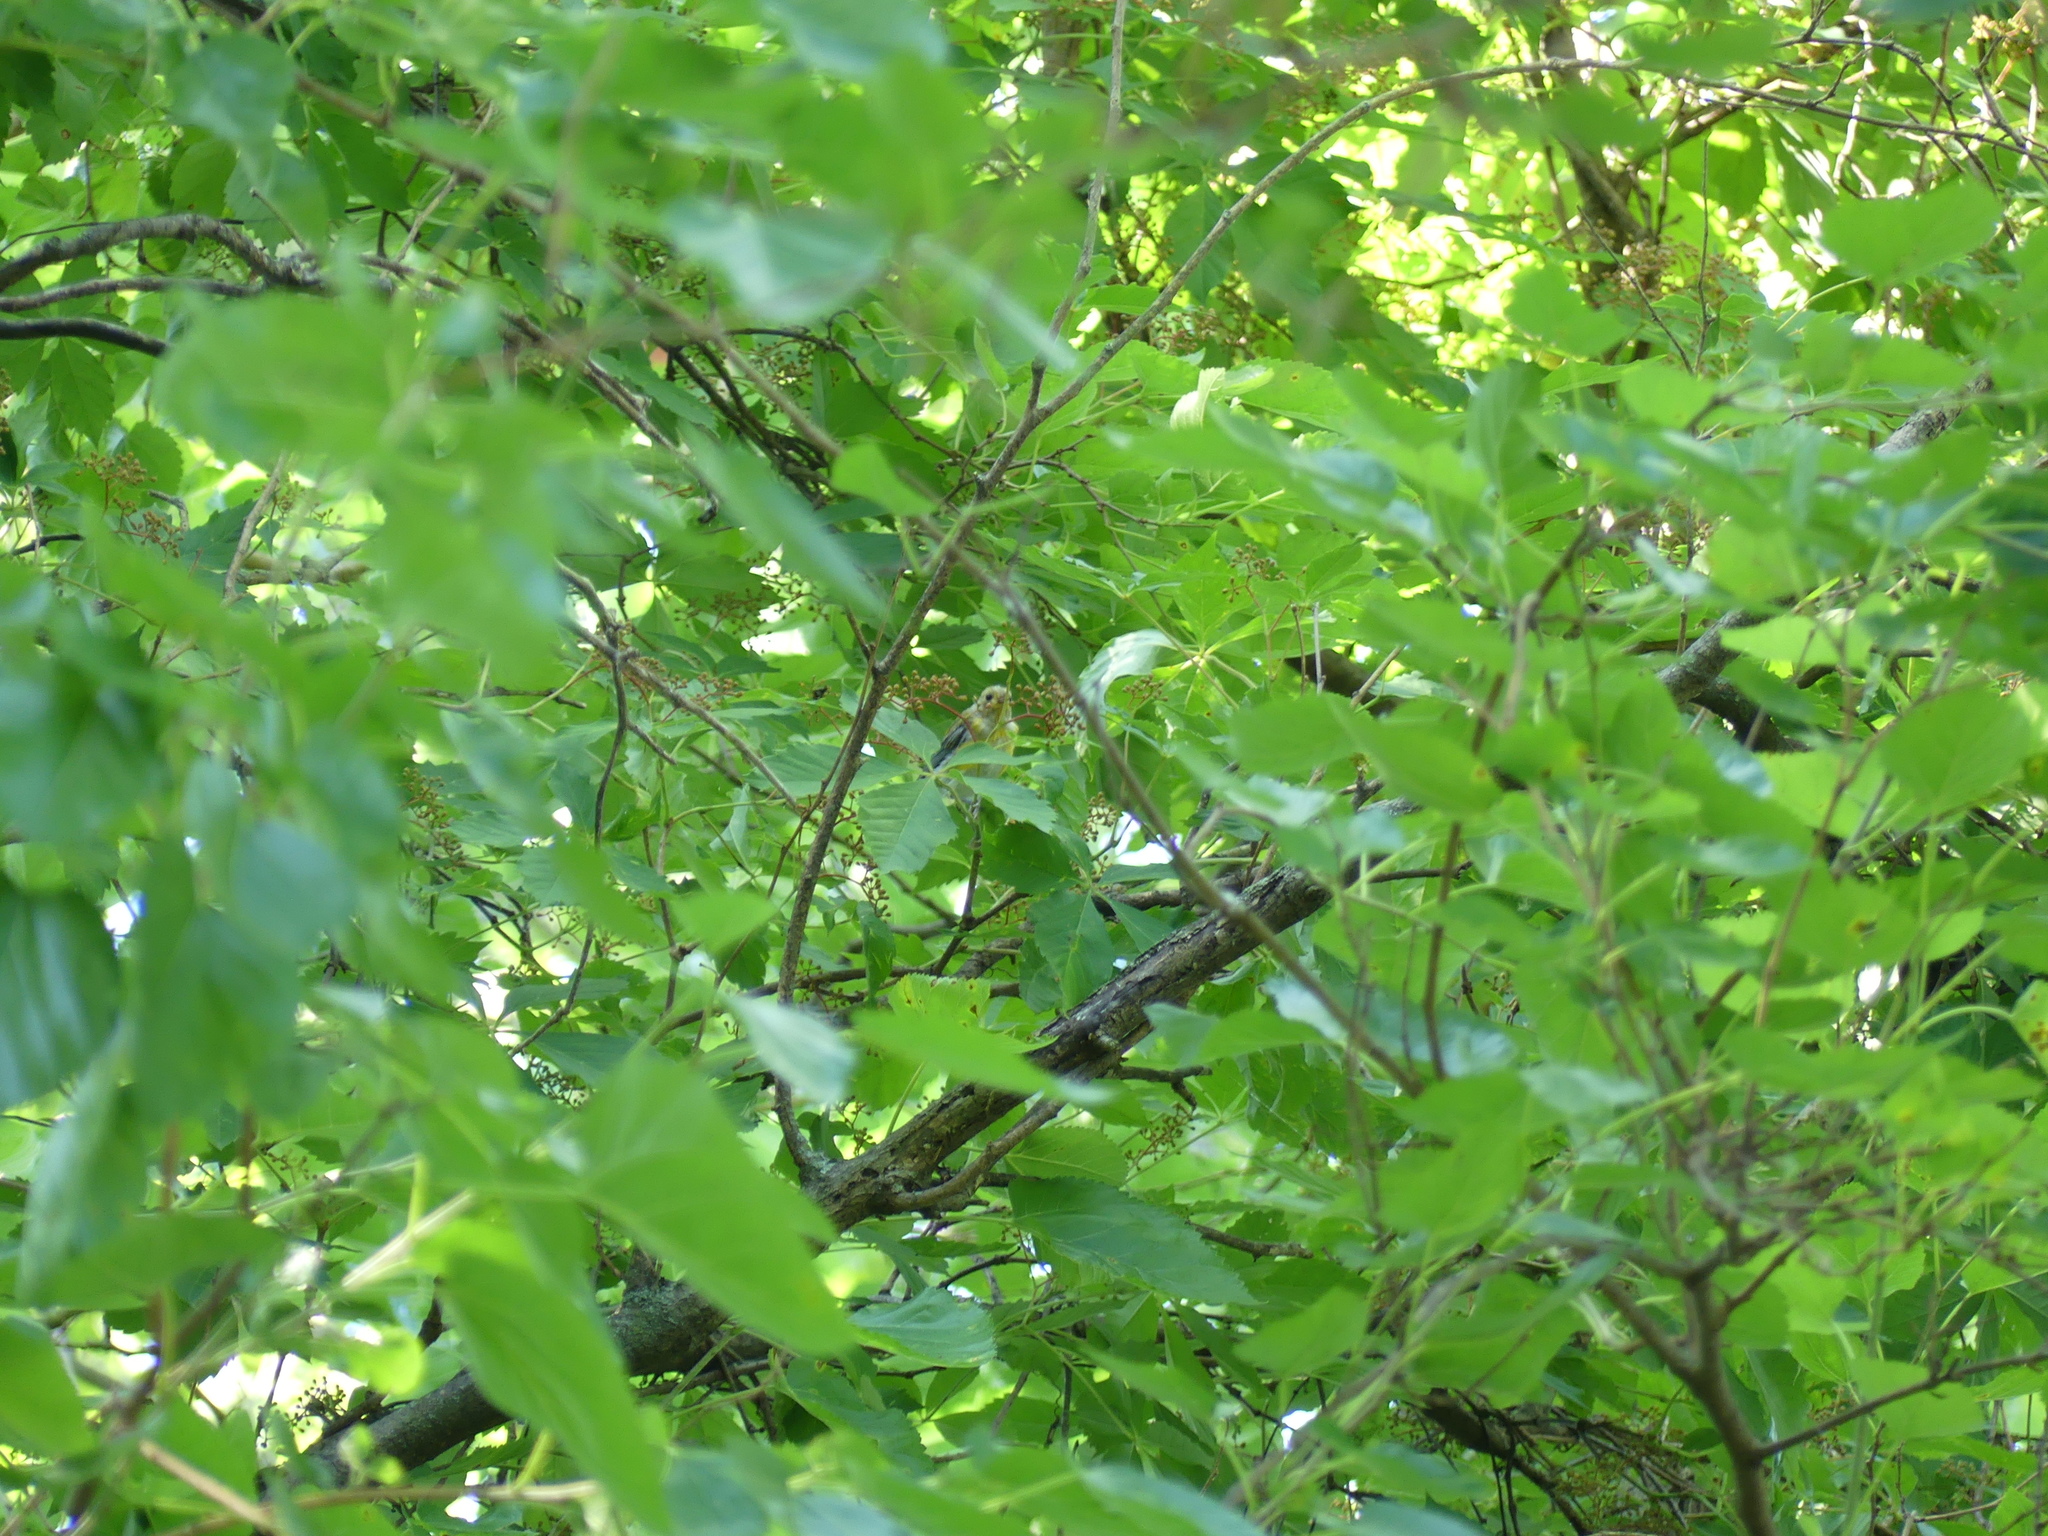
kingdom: Animalia
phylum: Chordata
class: Aves
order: Passeriformes
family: Parulidae
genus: Protonotaria
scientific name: Protonotaria citrea
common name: Prothonotary warbler
